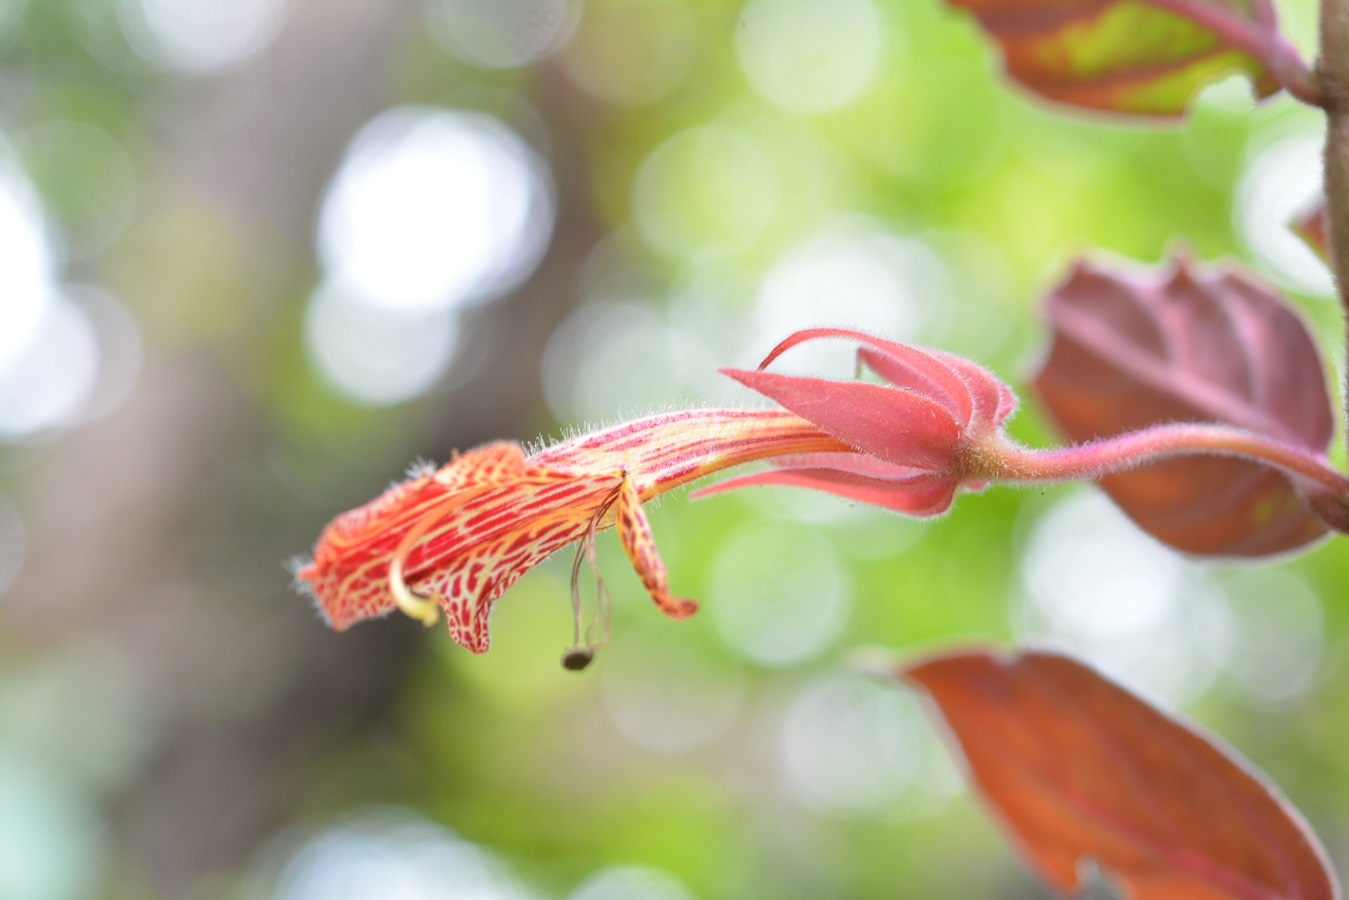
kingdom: Plantae
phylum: Tracheophyta
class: Magnoliopsida
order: Lamiales
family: Gesneriaceae
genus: Columnea
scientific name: Columnea schiedeana
